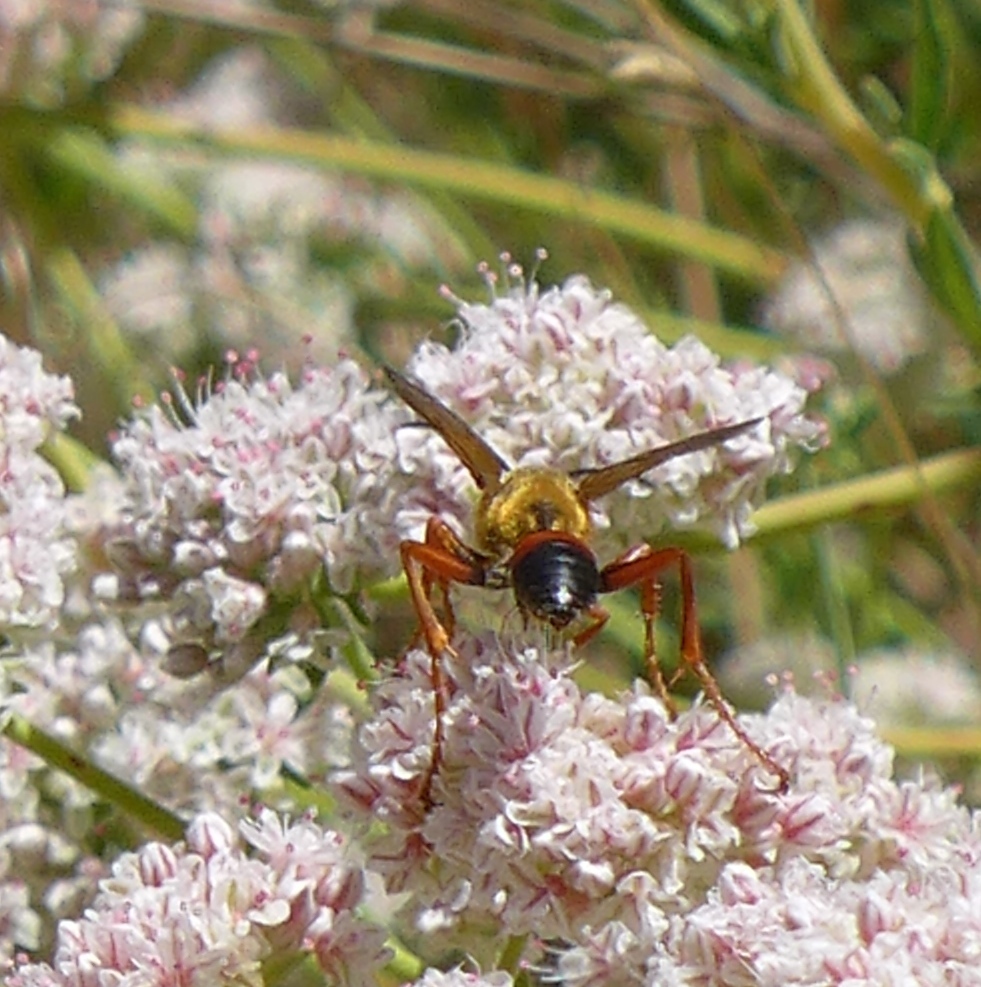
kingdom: Animalia
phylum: Arthropoda
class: Insecta
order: Hymenoptera
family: Sphecidae
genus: Sphex
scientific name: Sphex ichneumoneus
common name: Great golden digger wasp
